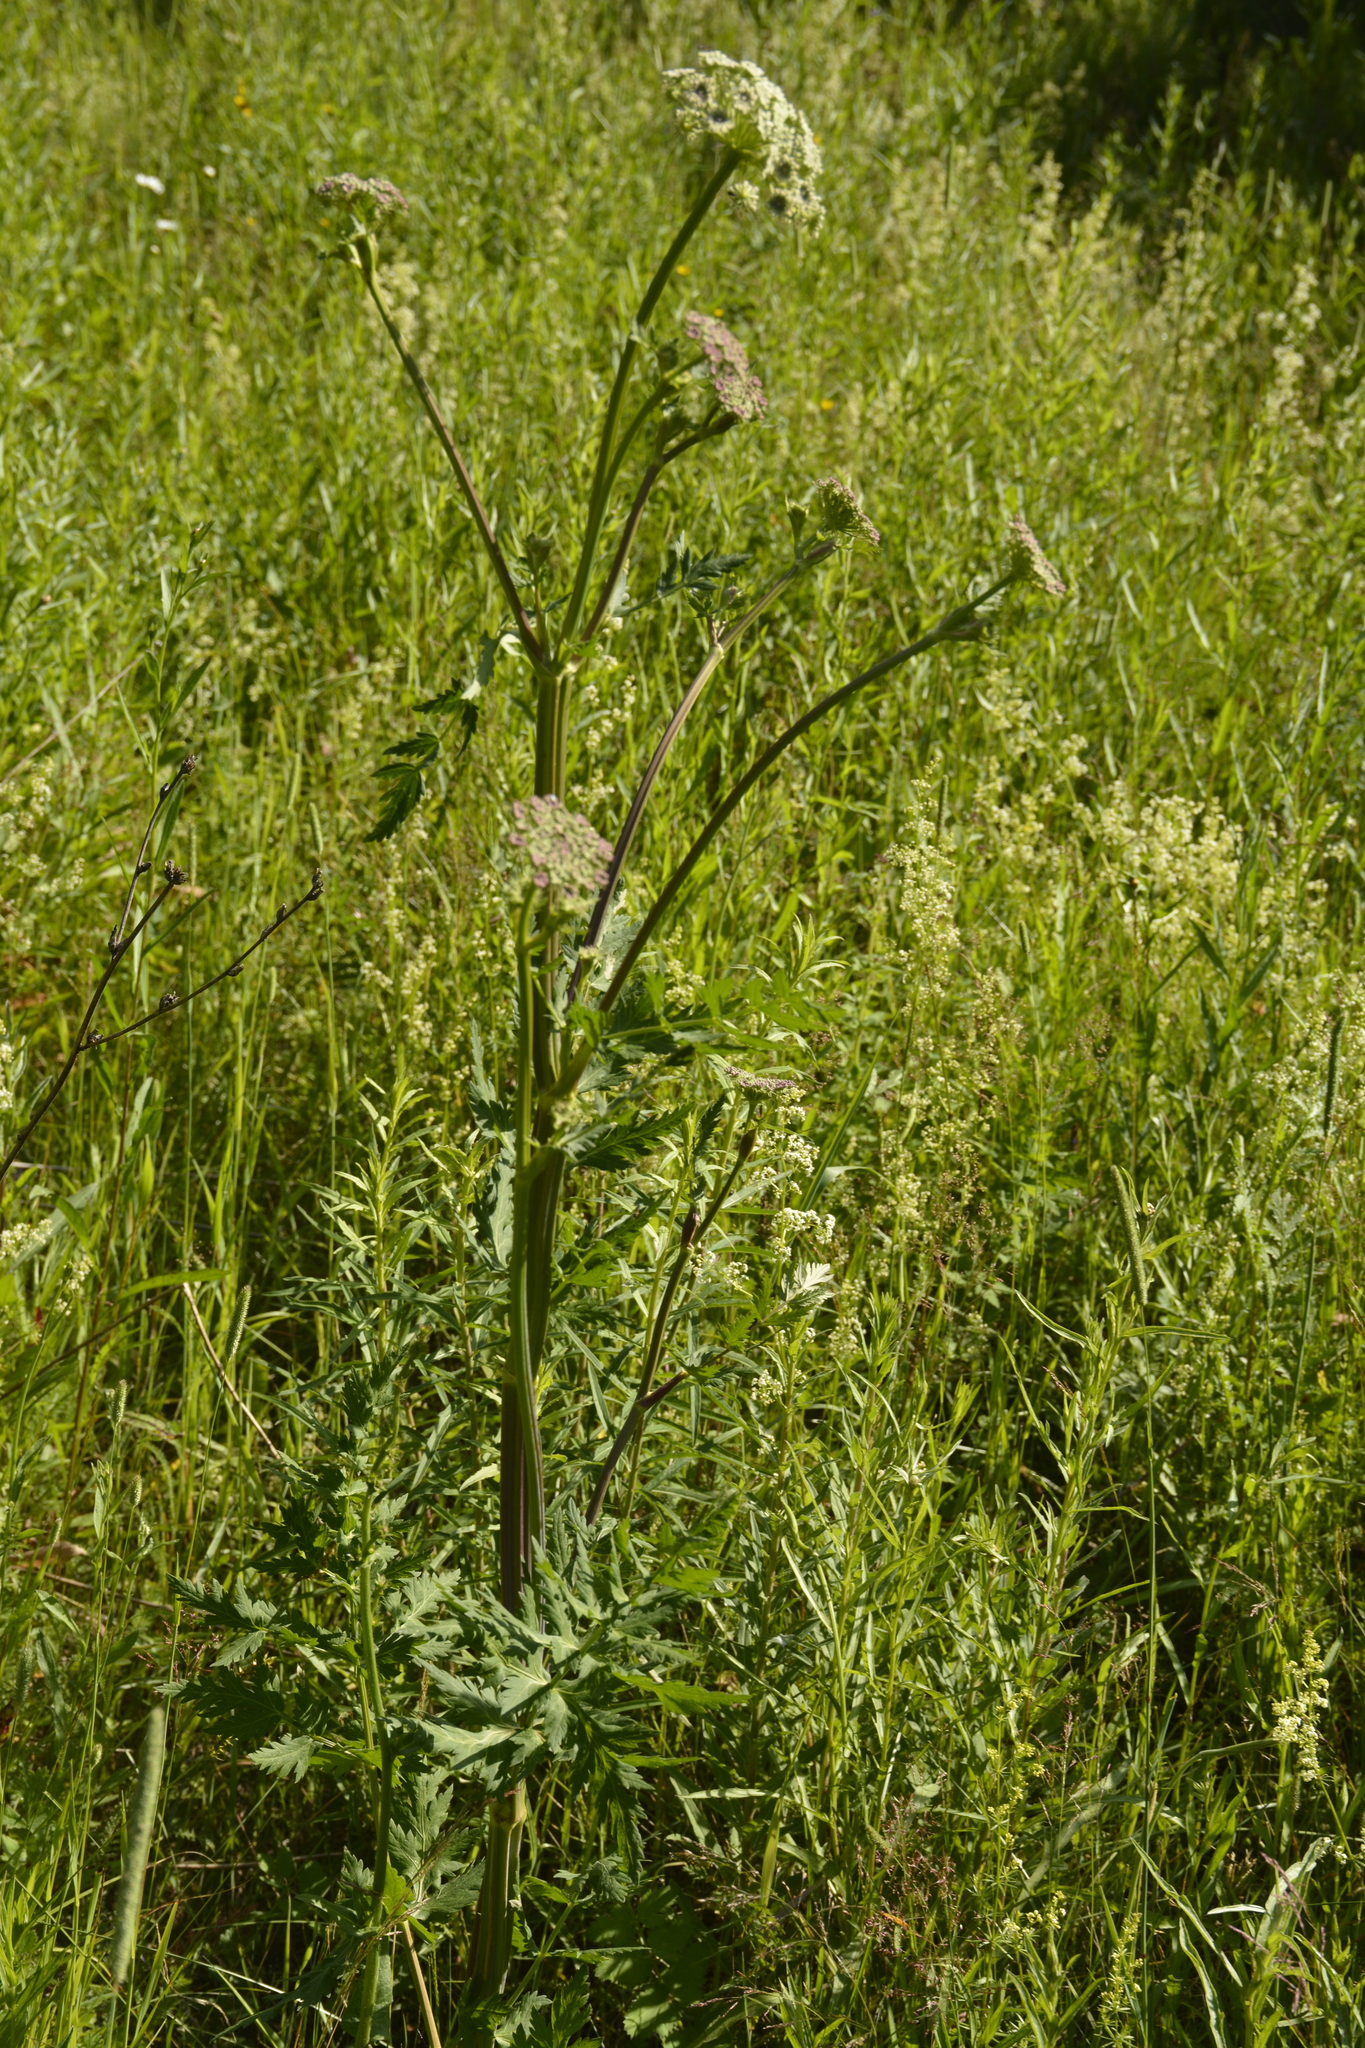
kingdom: Plantae
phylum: Tracheophyta
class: Magnoliopsida
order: Apiales
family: Apiaceae
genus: Seseli
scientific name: Seseli libanotis
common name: Mooncarrot
